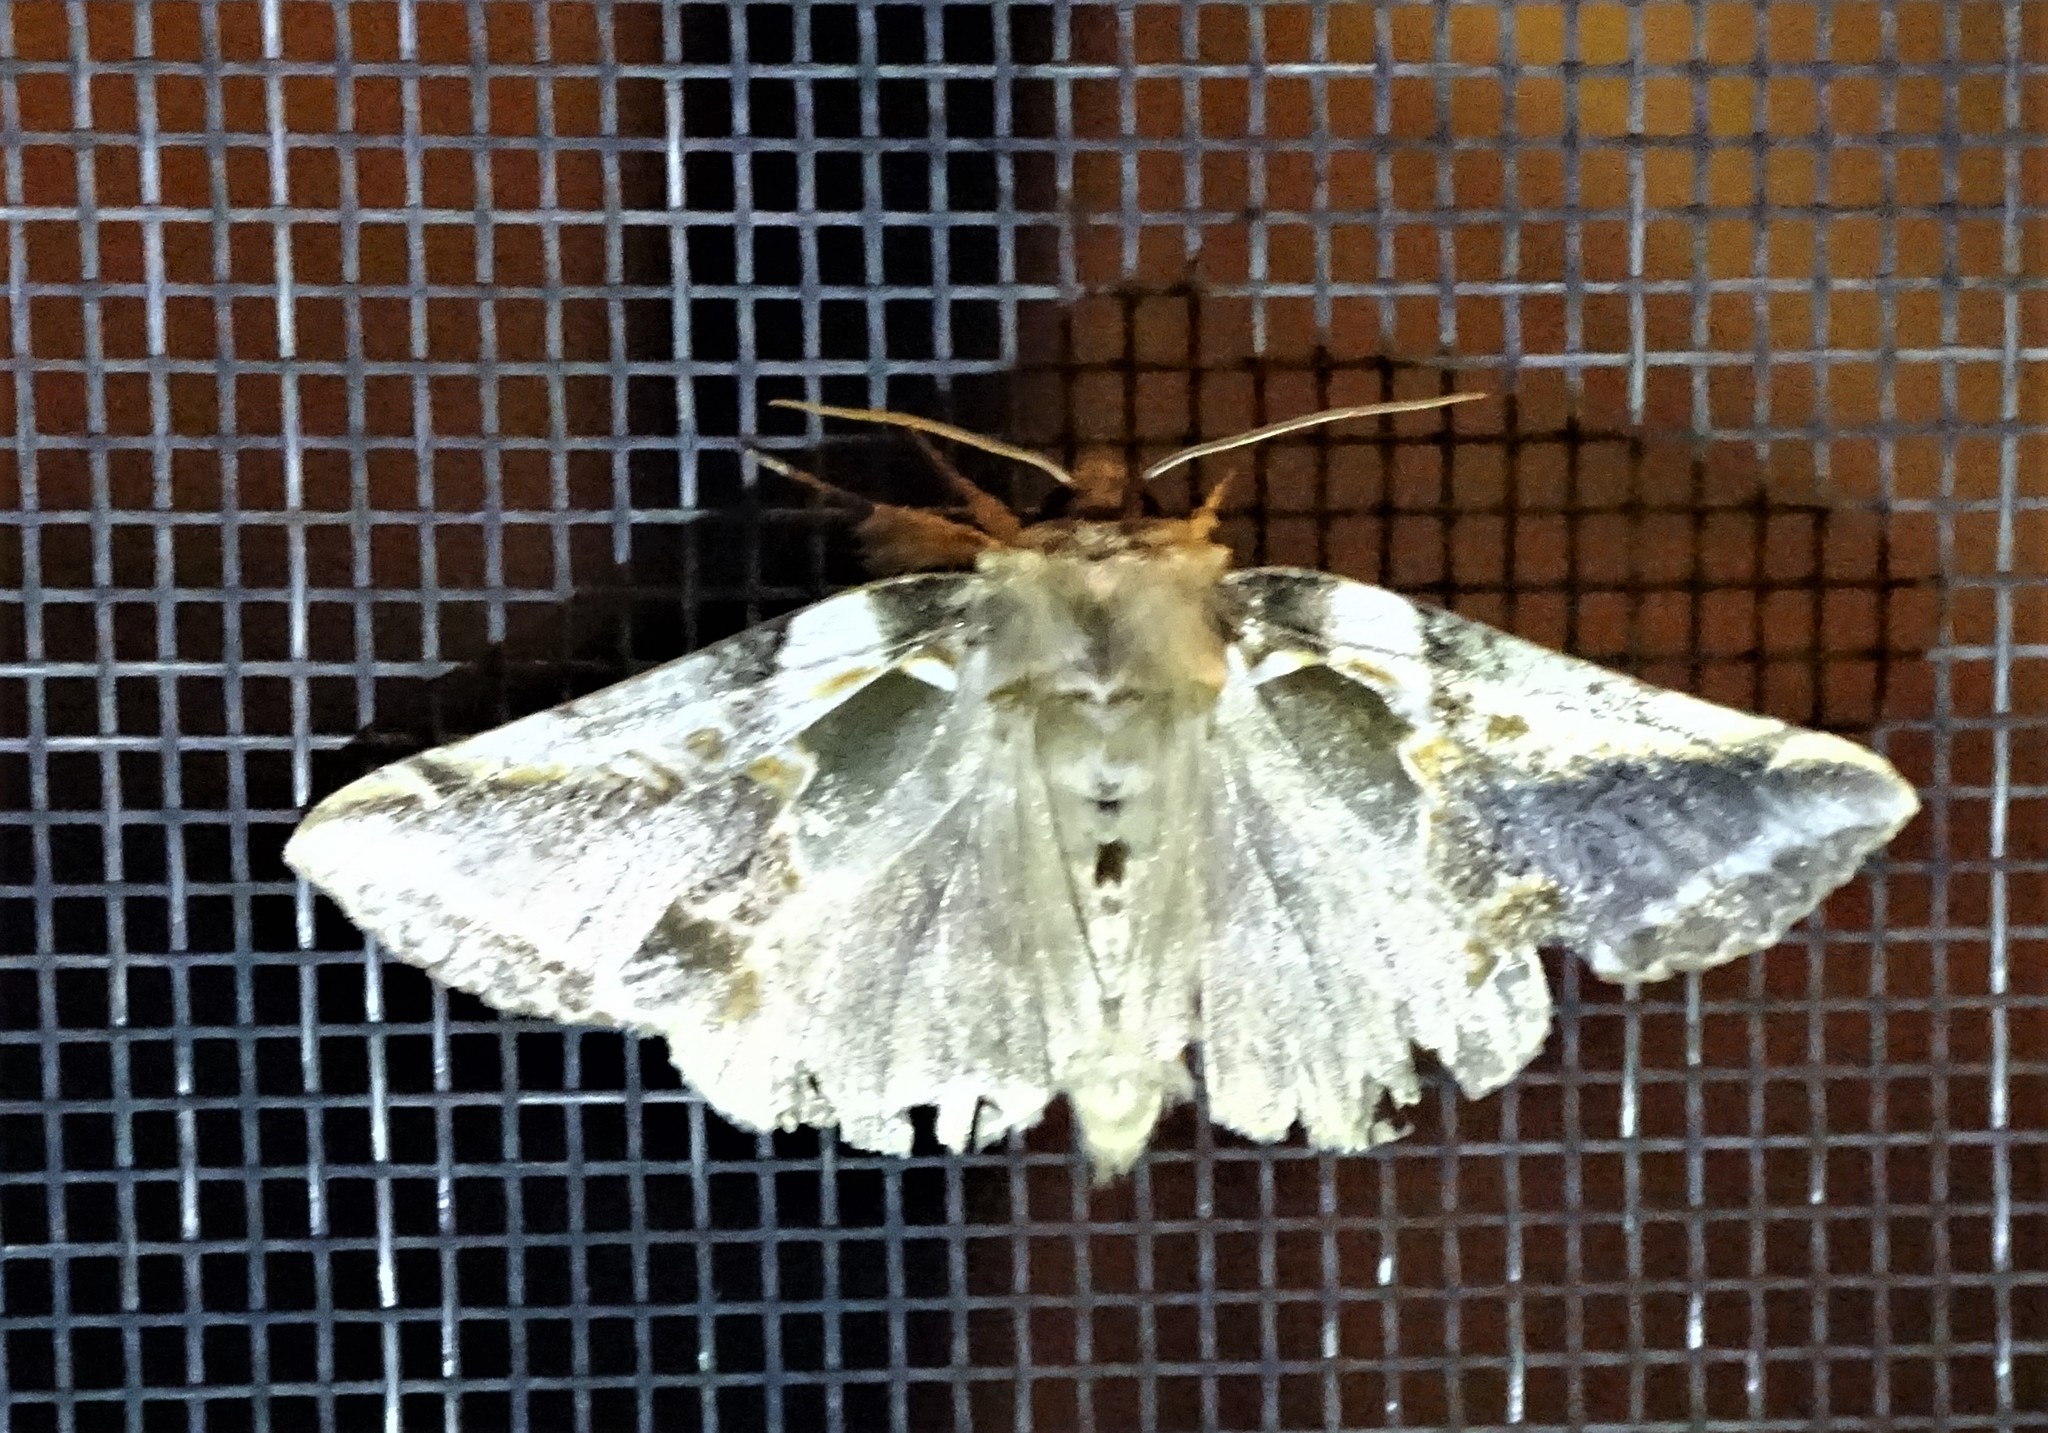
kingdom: Animalia
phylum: Arthropoda
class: Insecta
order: Lepidoptera
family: Drepanidae
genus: Habrosyne
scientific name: Habrosyne gloriosa
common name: Glorious habrosyne moth
